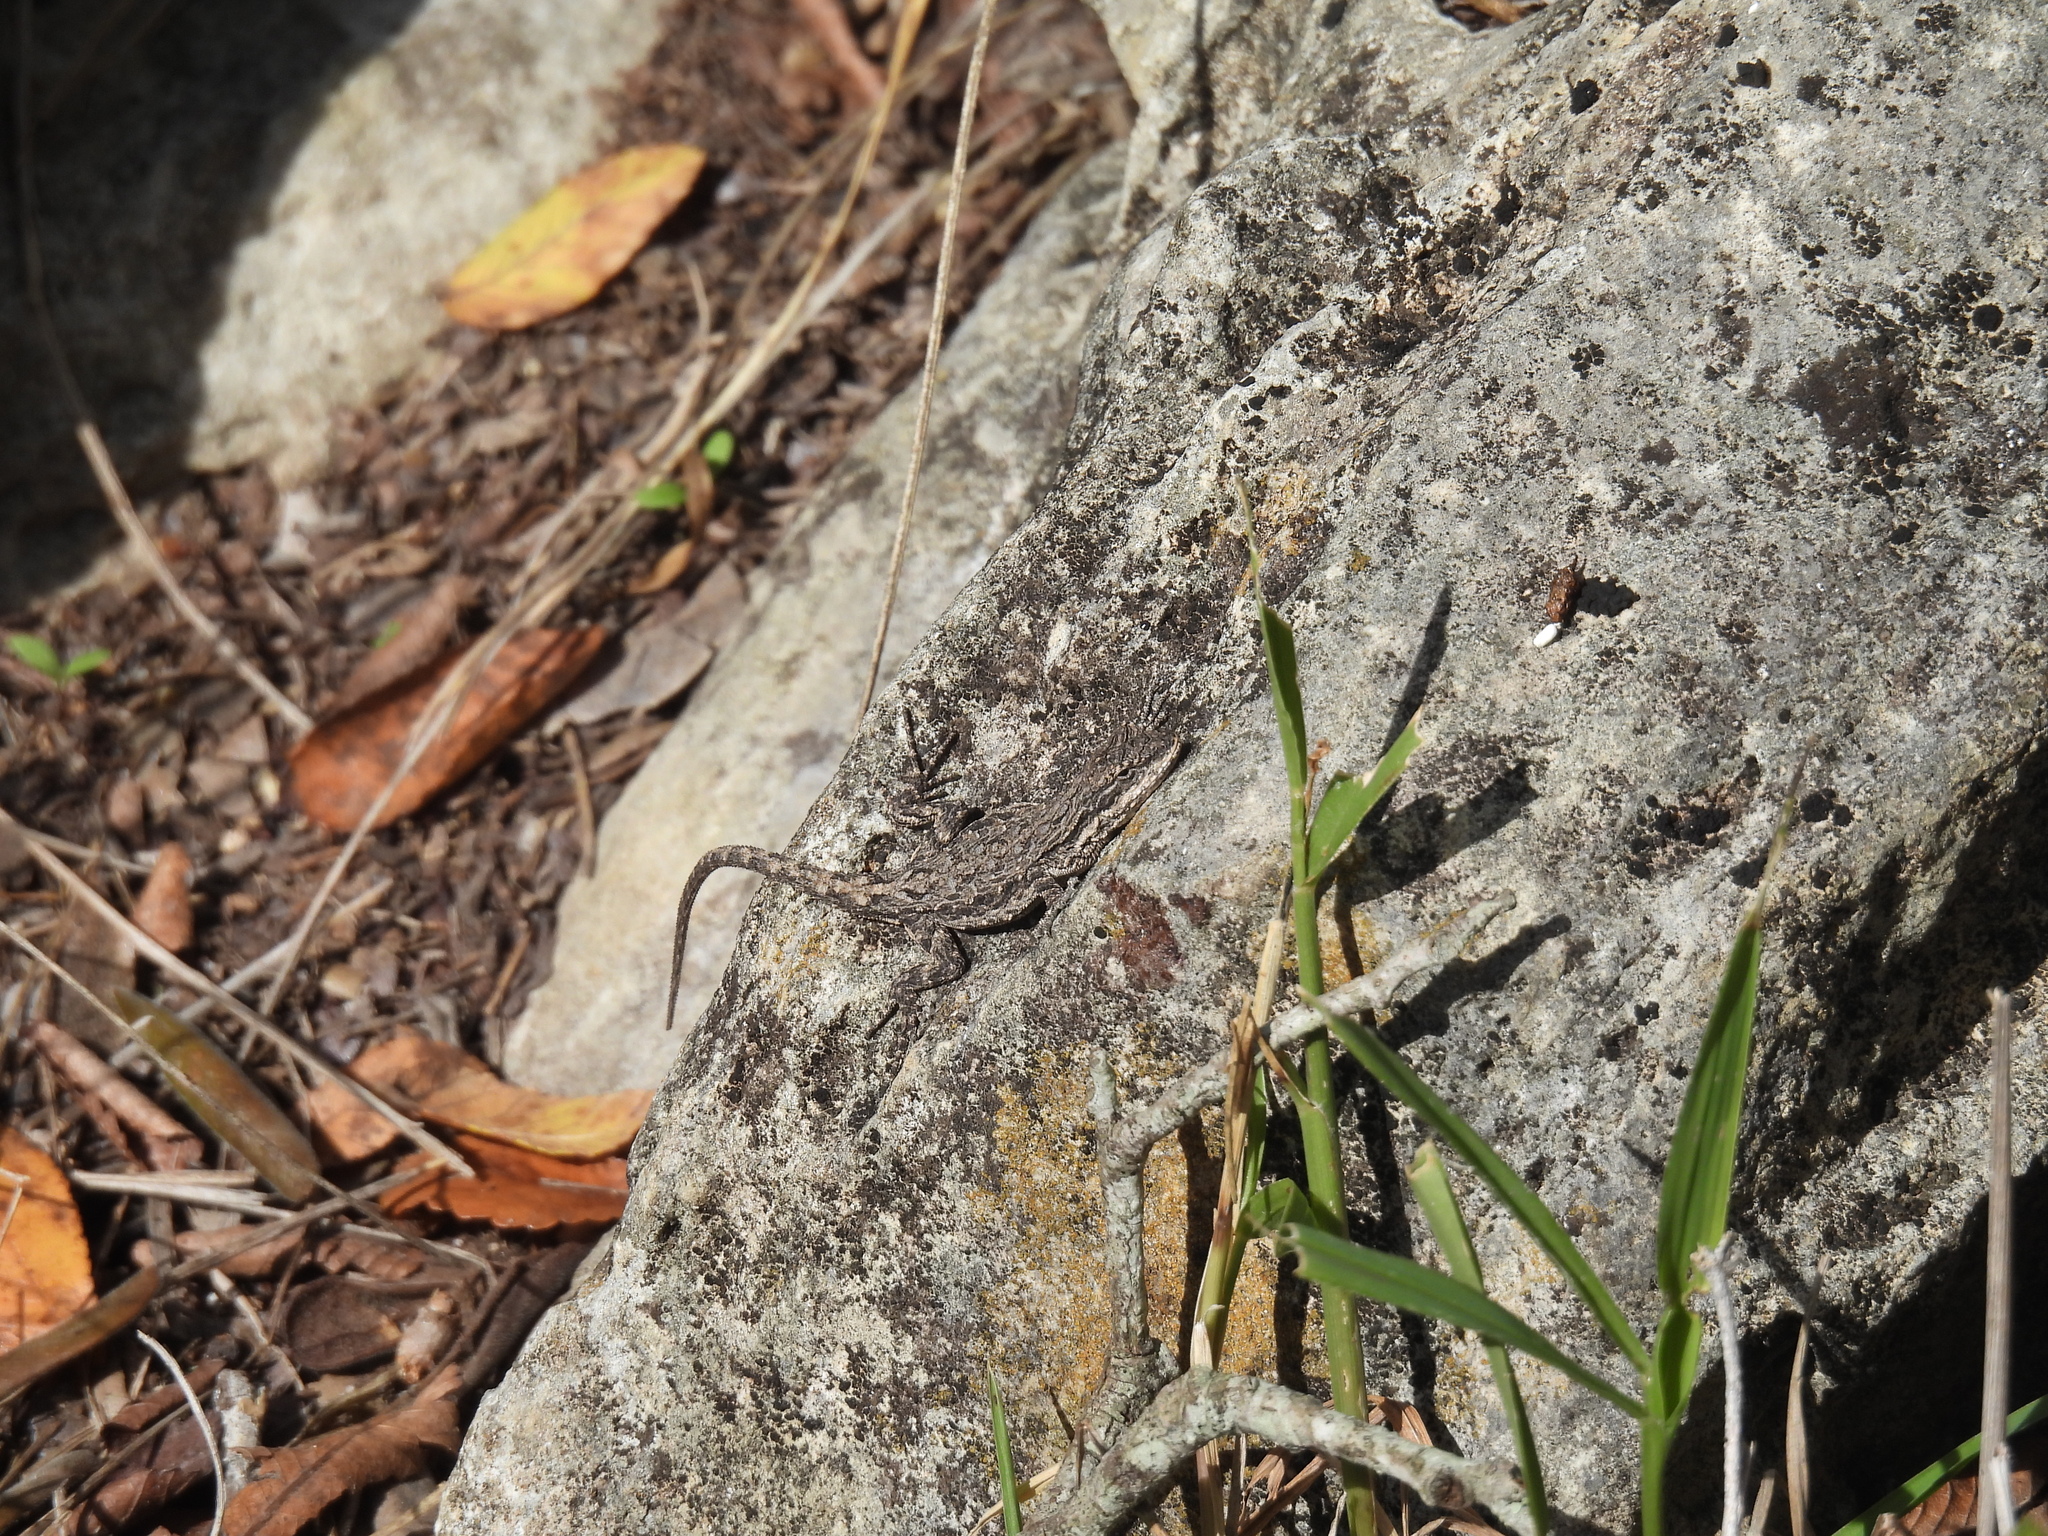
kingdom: Animalia
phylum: Chordata
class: Squamata
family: Phrynosomatidae
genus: Urosaurus
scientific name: Urosaurus ornatus
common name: Ornate tree lizard
